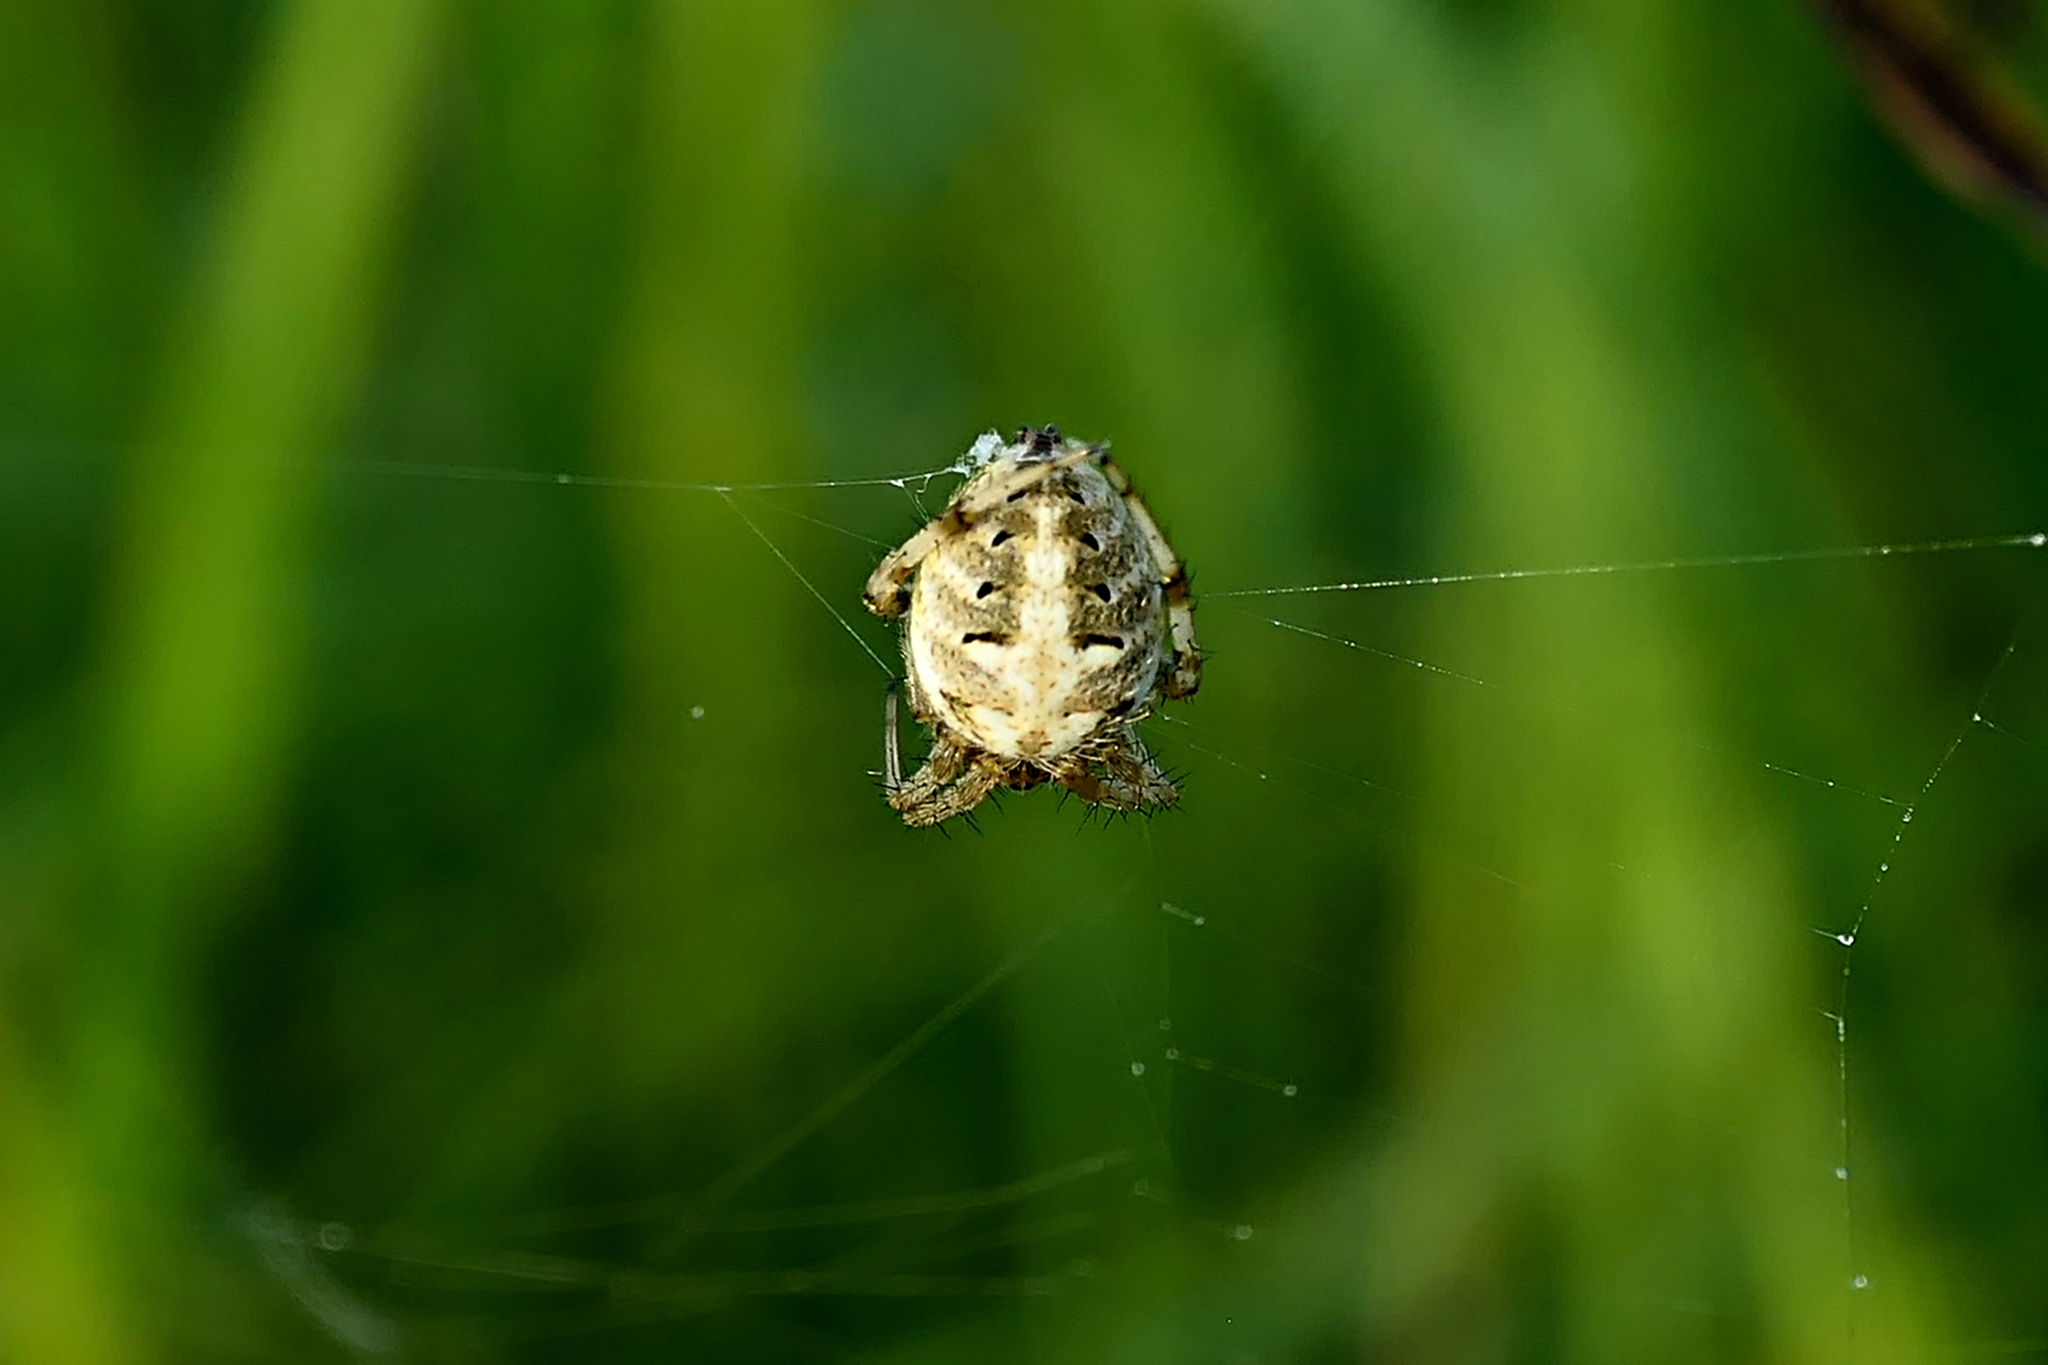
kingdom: Animalia
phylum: Arthropoda
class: Arachnida
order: Araneae
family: Araneidae
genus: Neoscona
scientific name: Neoscona arabesca
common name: Orb weavers
